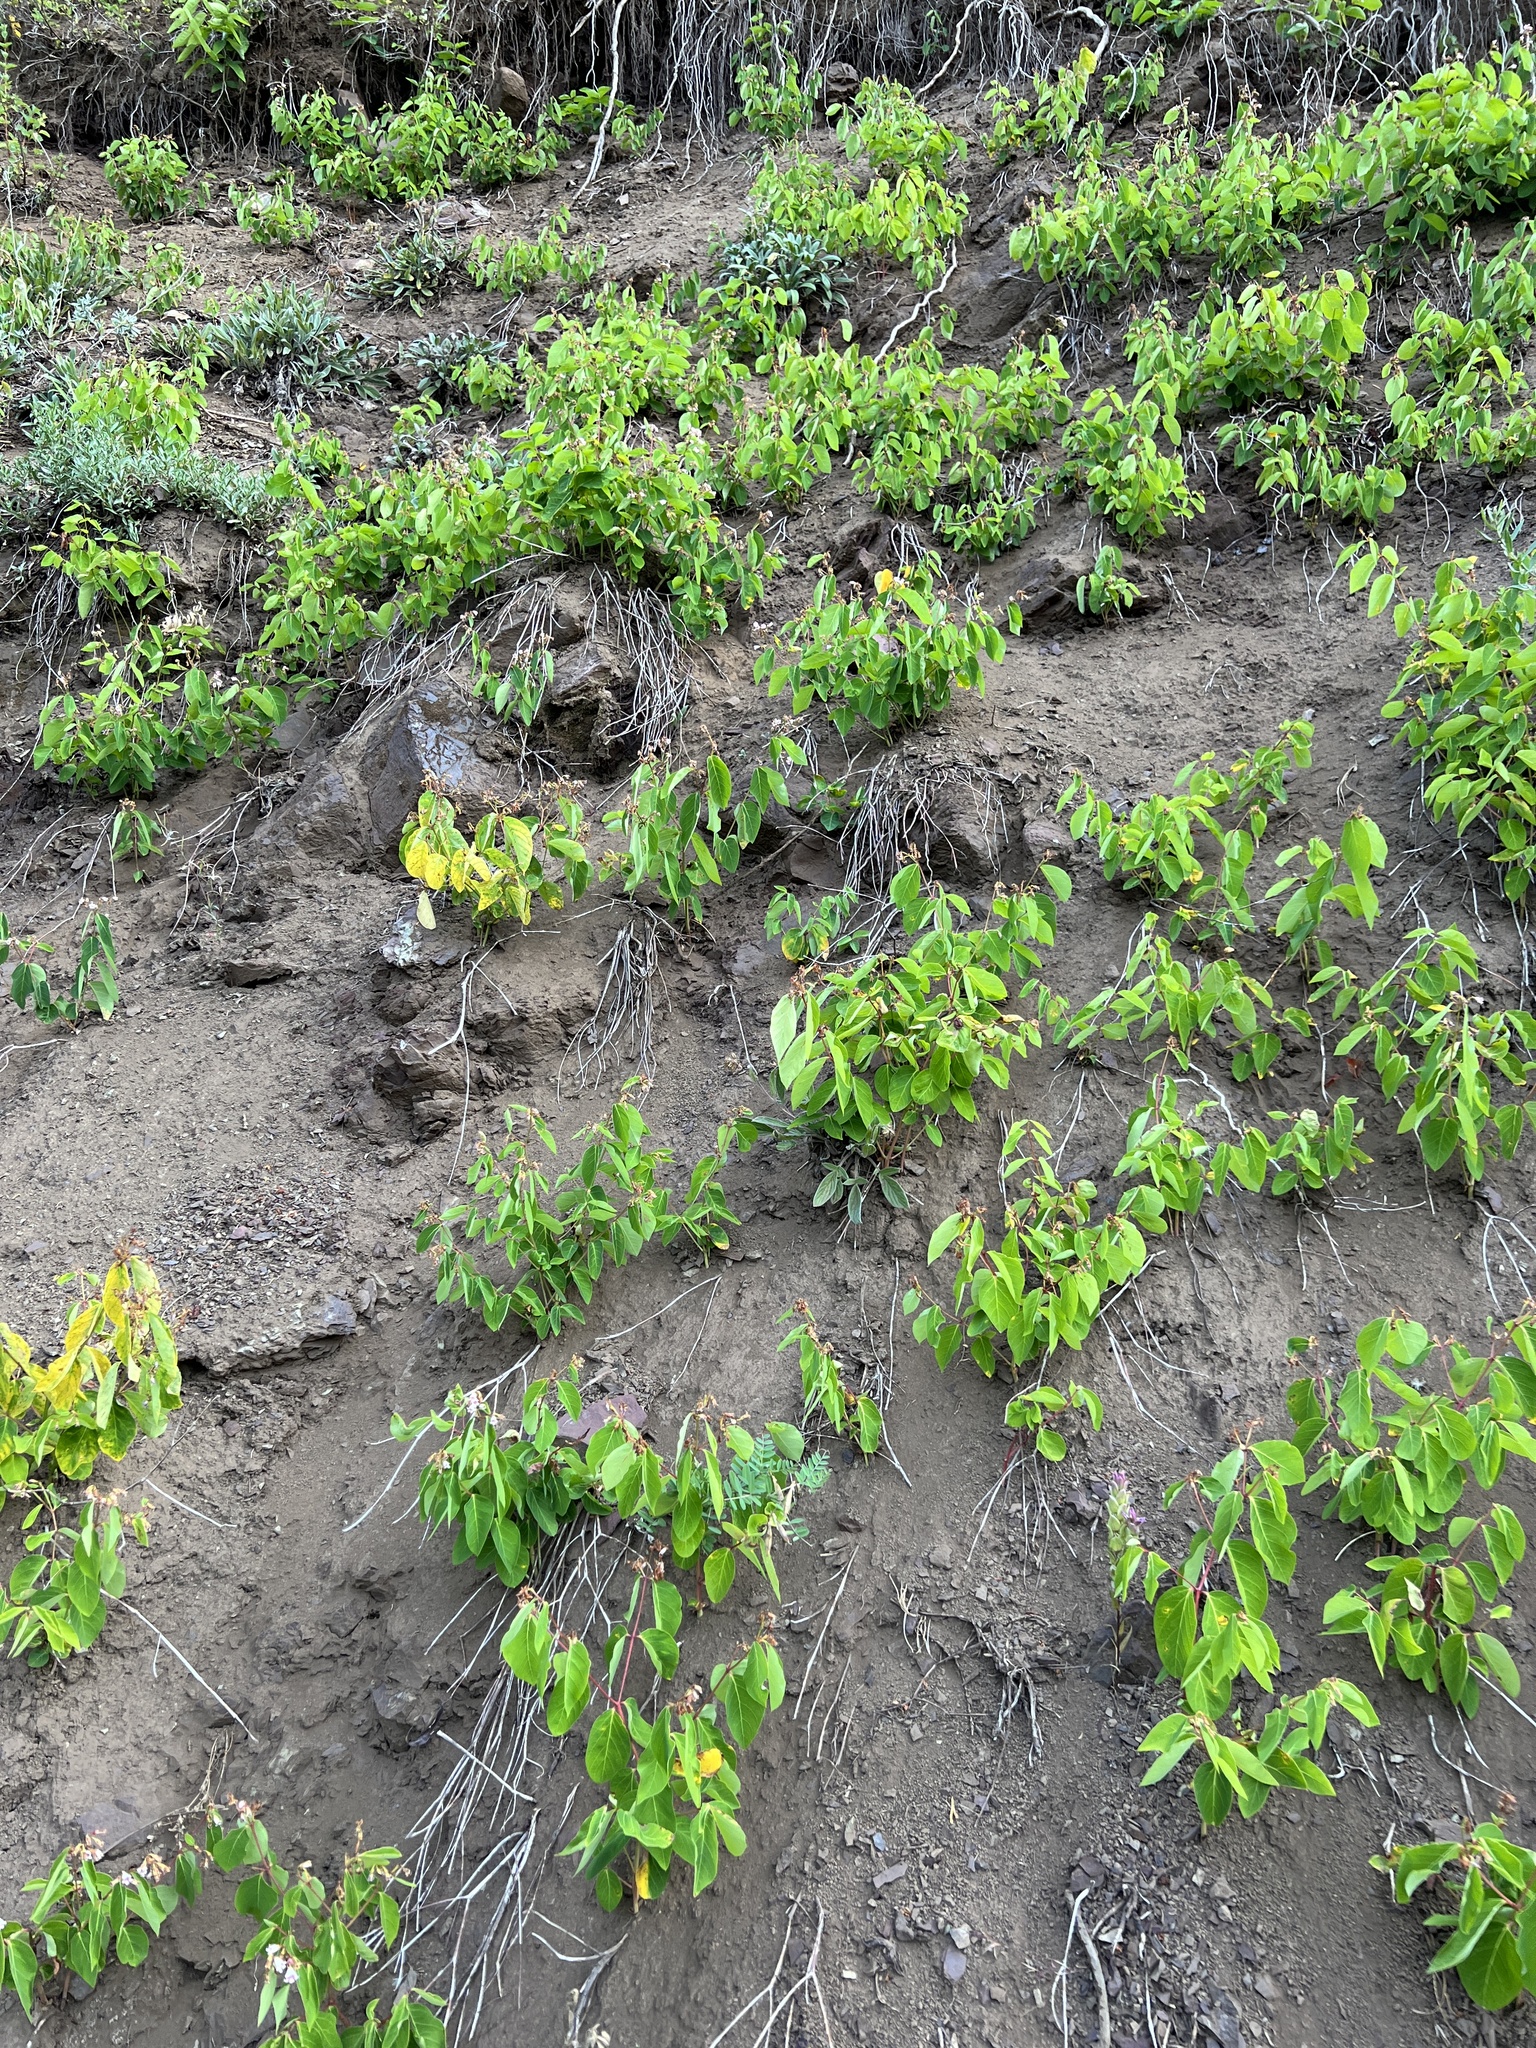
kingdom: Plantae
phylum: Tracheophyta
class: Magnoliopsida
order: Gentianales
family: Apocynaceae
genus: Apocynum
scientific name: Apocynum androsaemifolium
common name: Spreading dogbane
